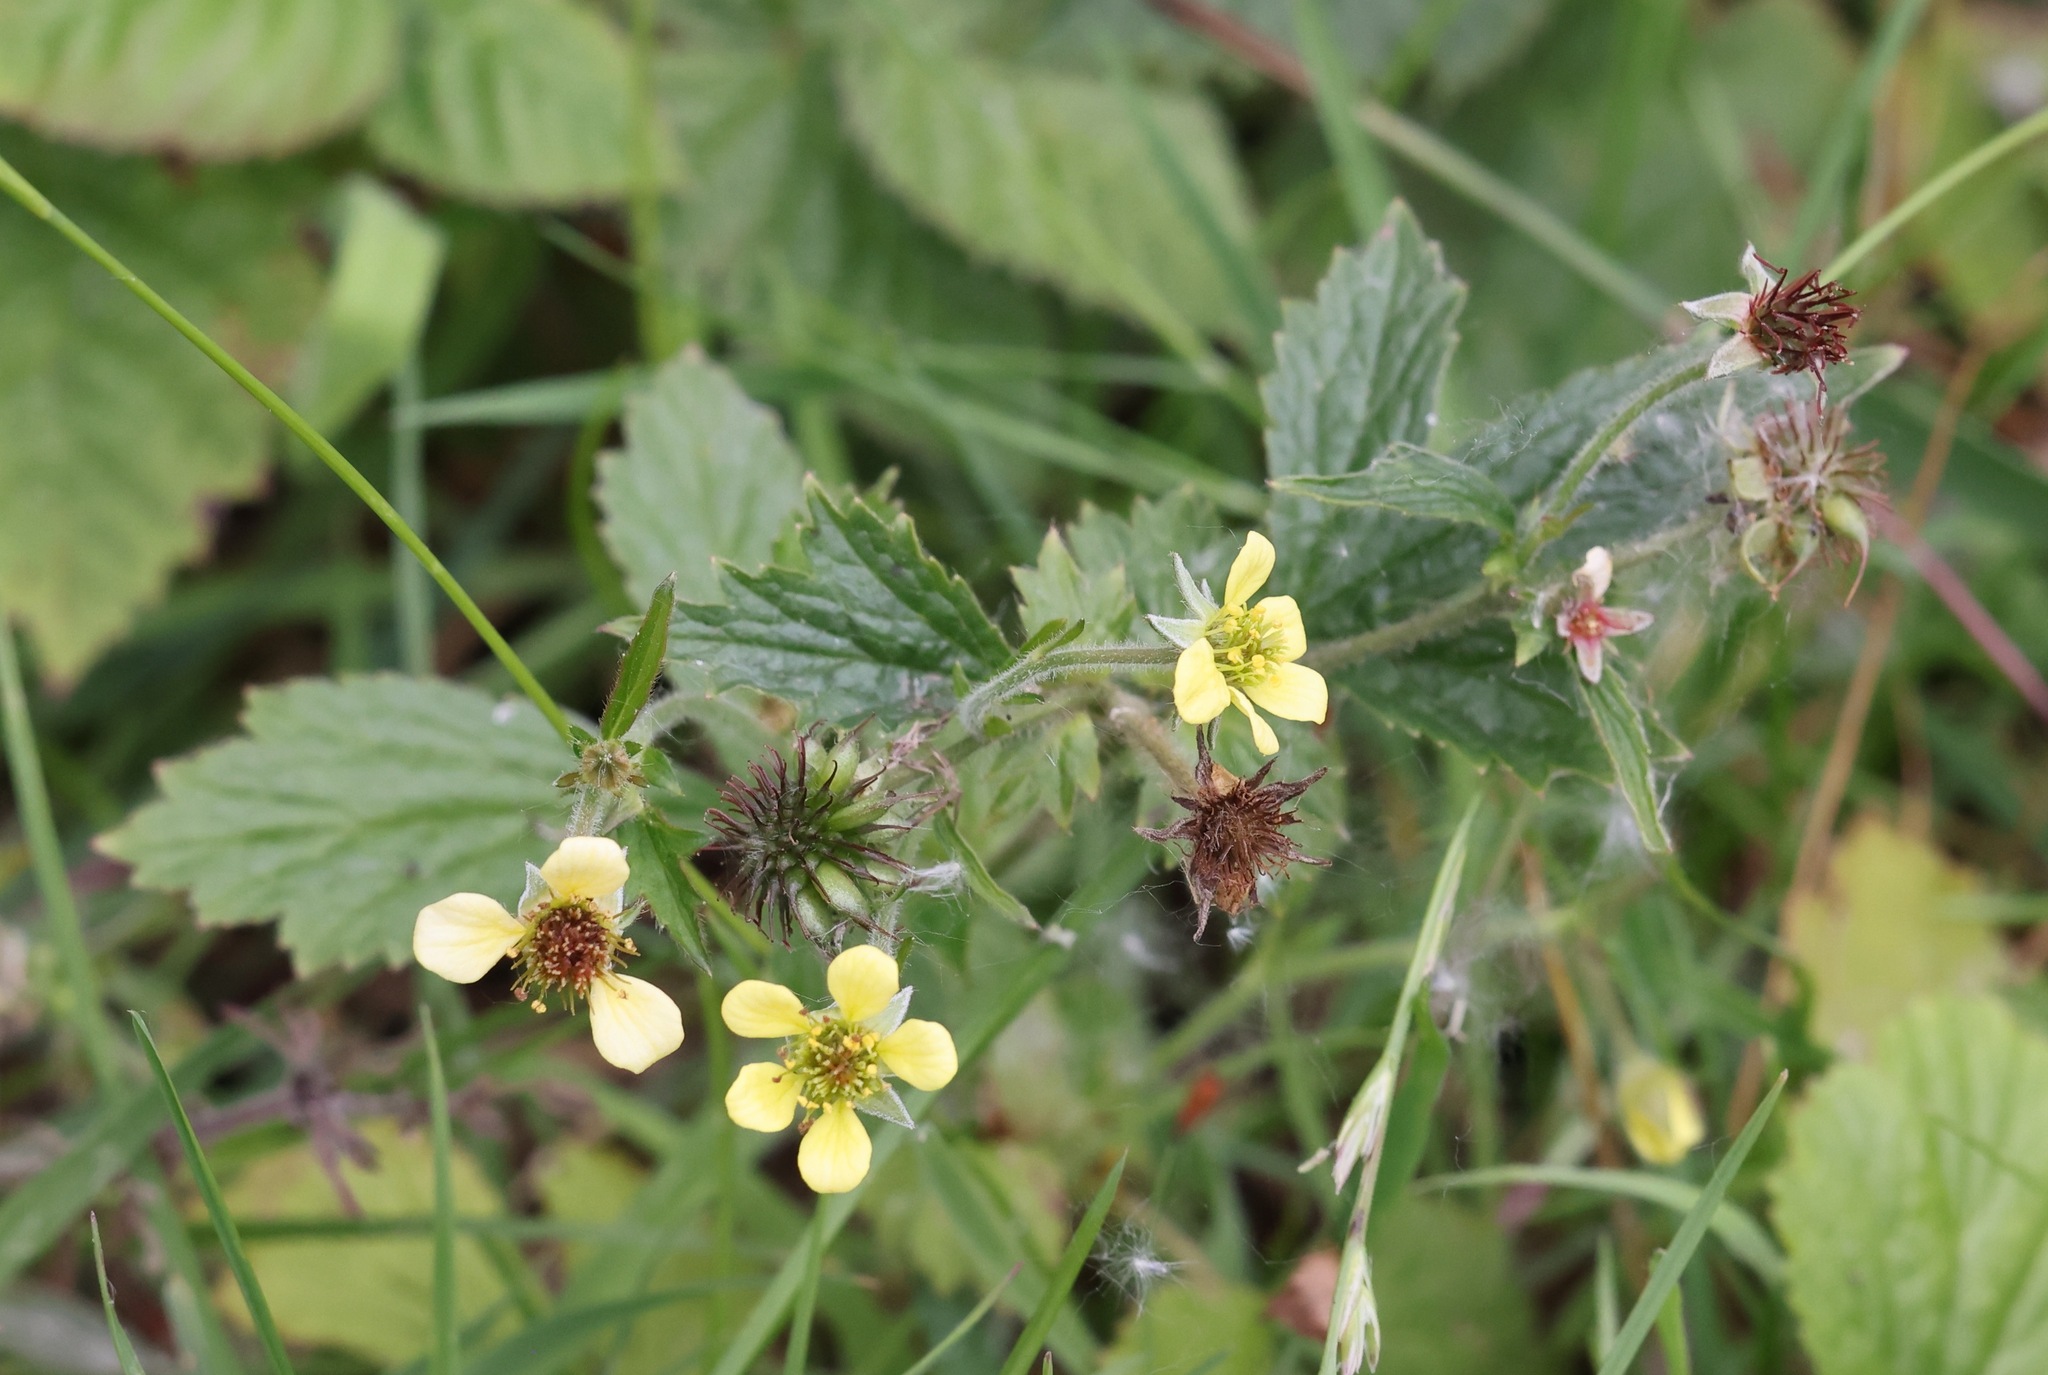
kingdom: Plantae
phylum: Tracheophyta
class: Magnoliopsida
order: Rosales
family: Rosaceae
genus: Geum
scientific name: Geum urbanum
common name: Wood avens
